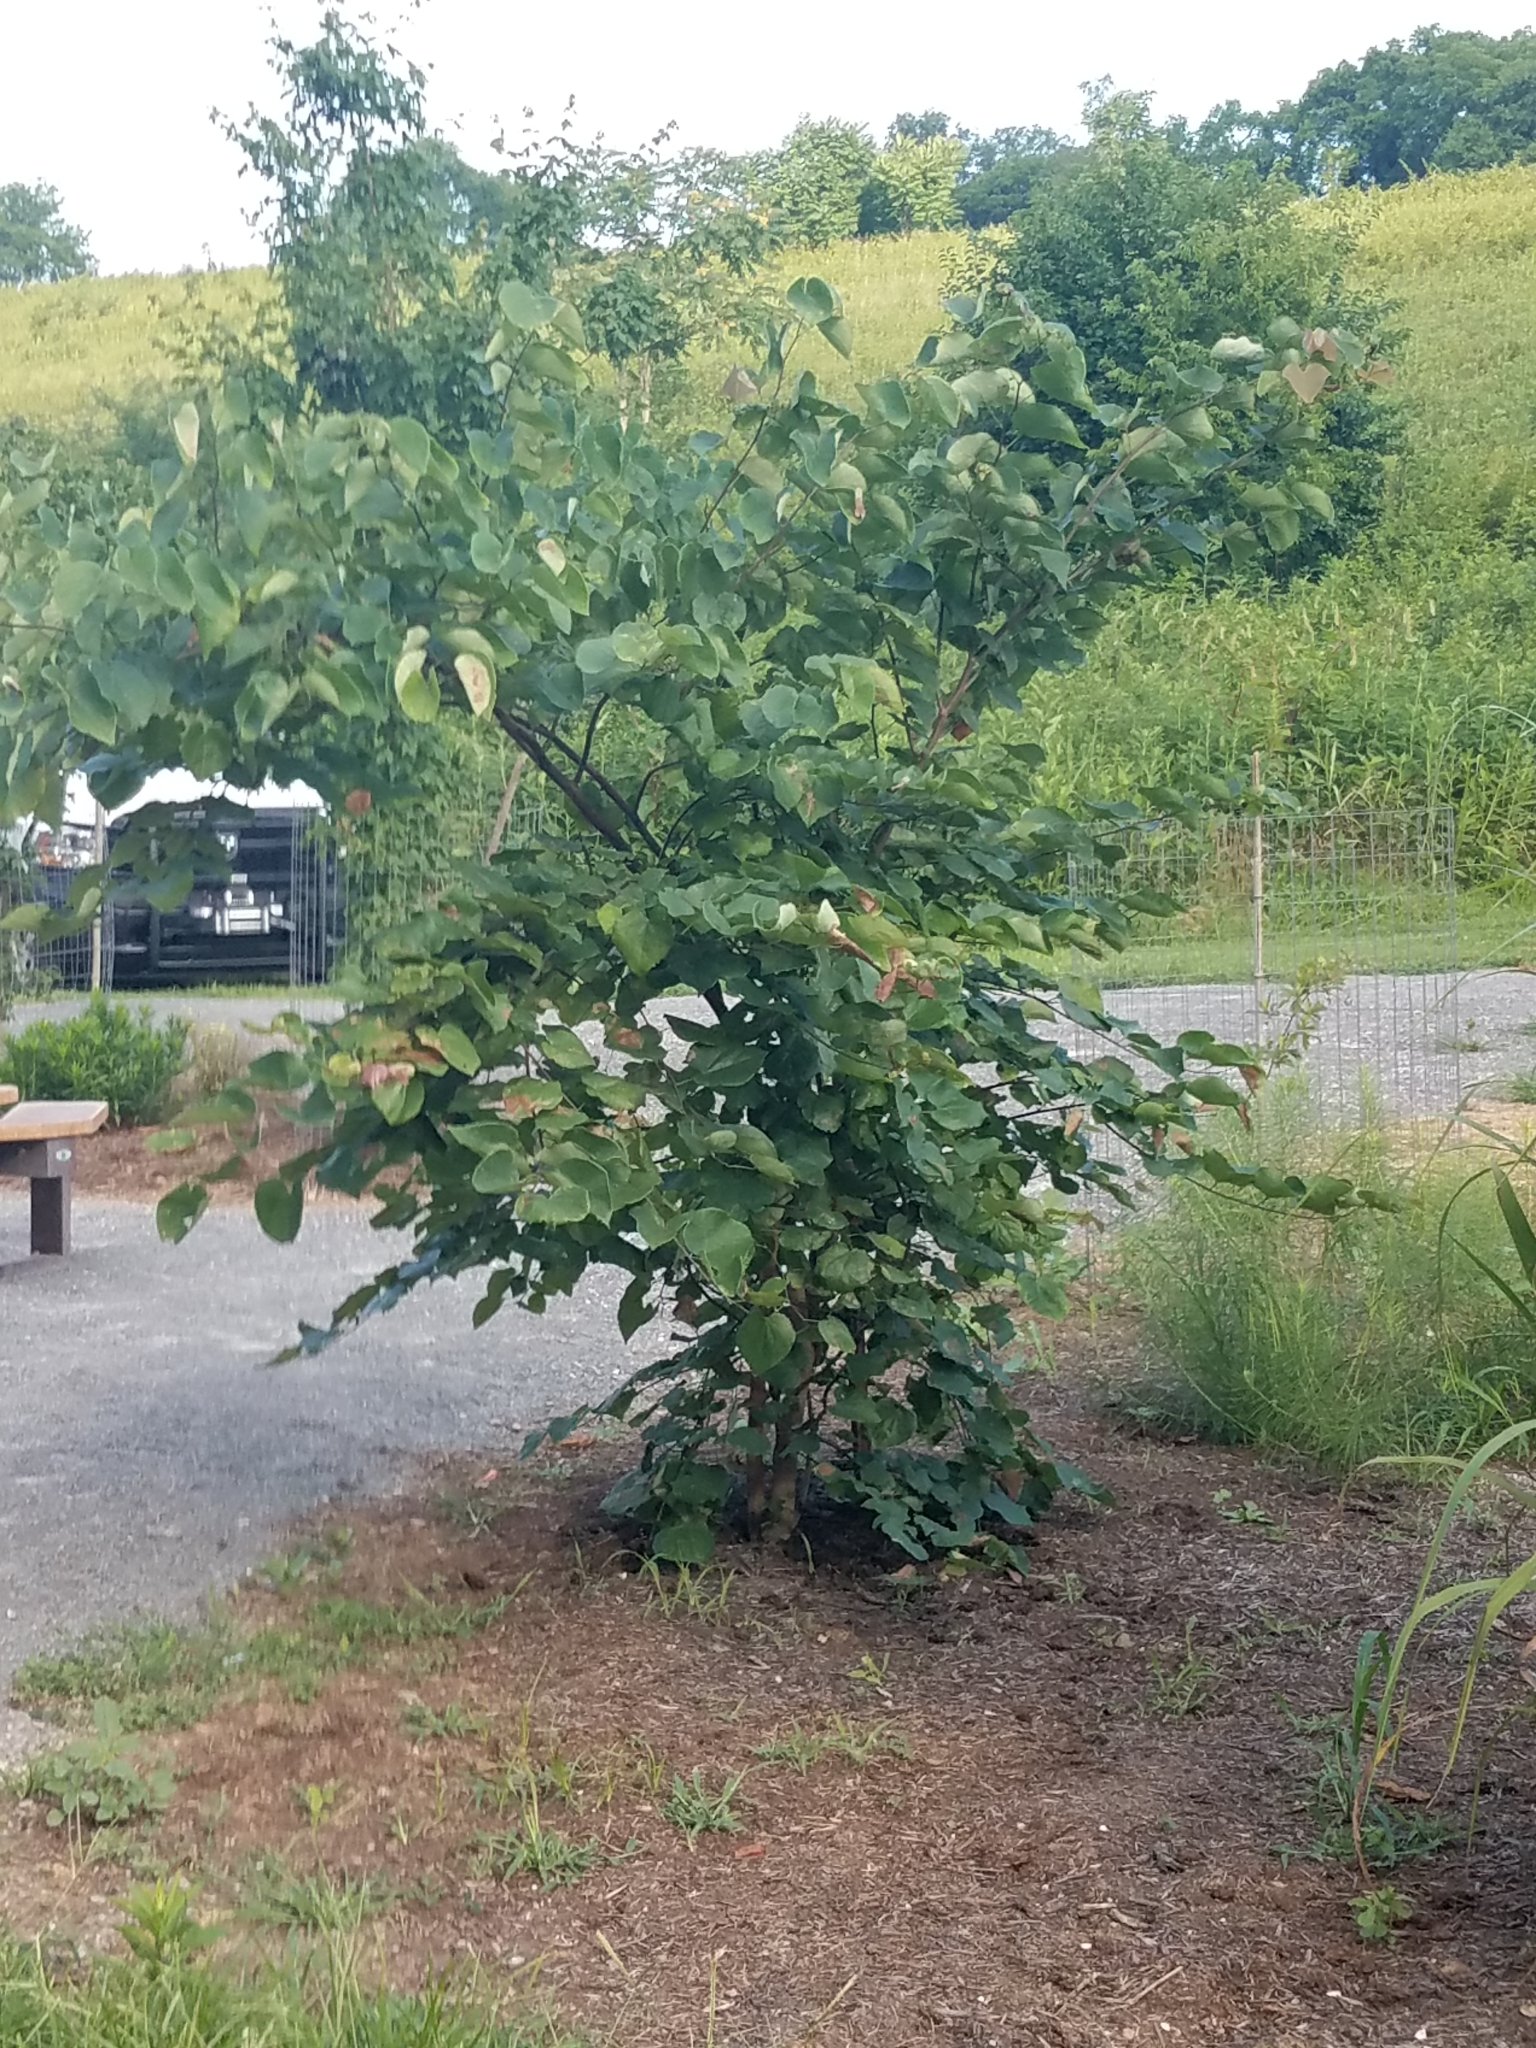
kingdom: Plantae
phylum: Tracheophyta
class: Magnoliopsida
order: Fabales
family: Fabaceae
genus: Cercis
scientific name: Cercis canadensis
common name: Eastern redbud
